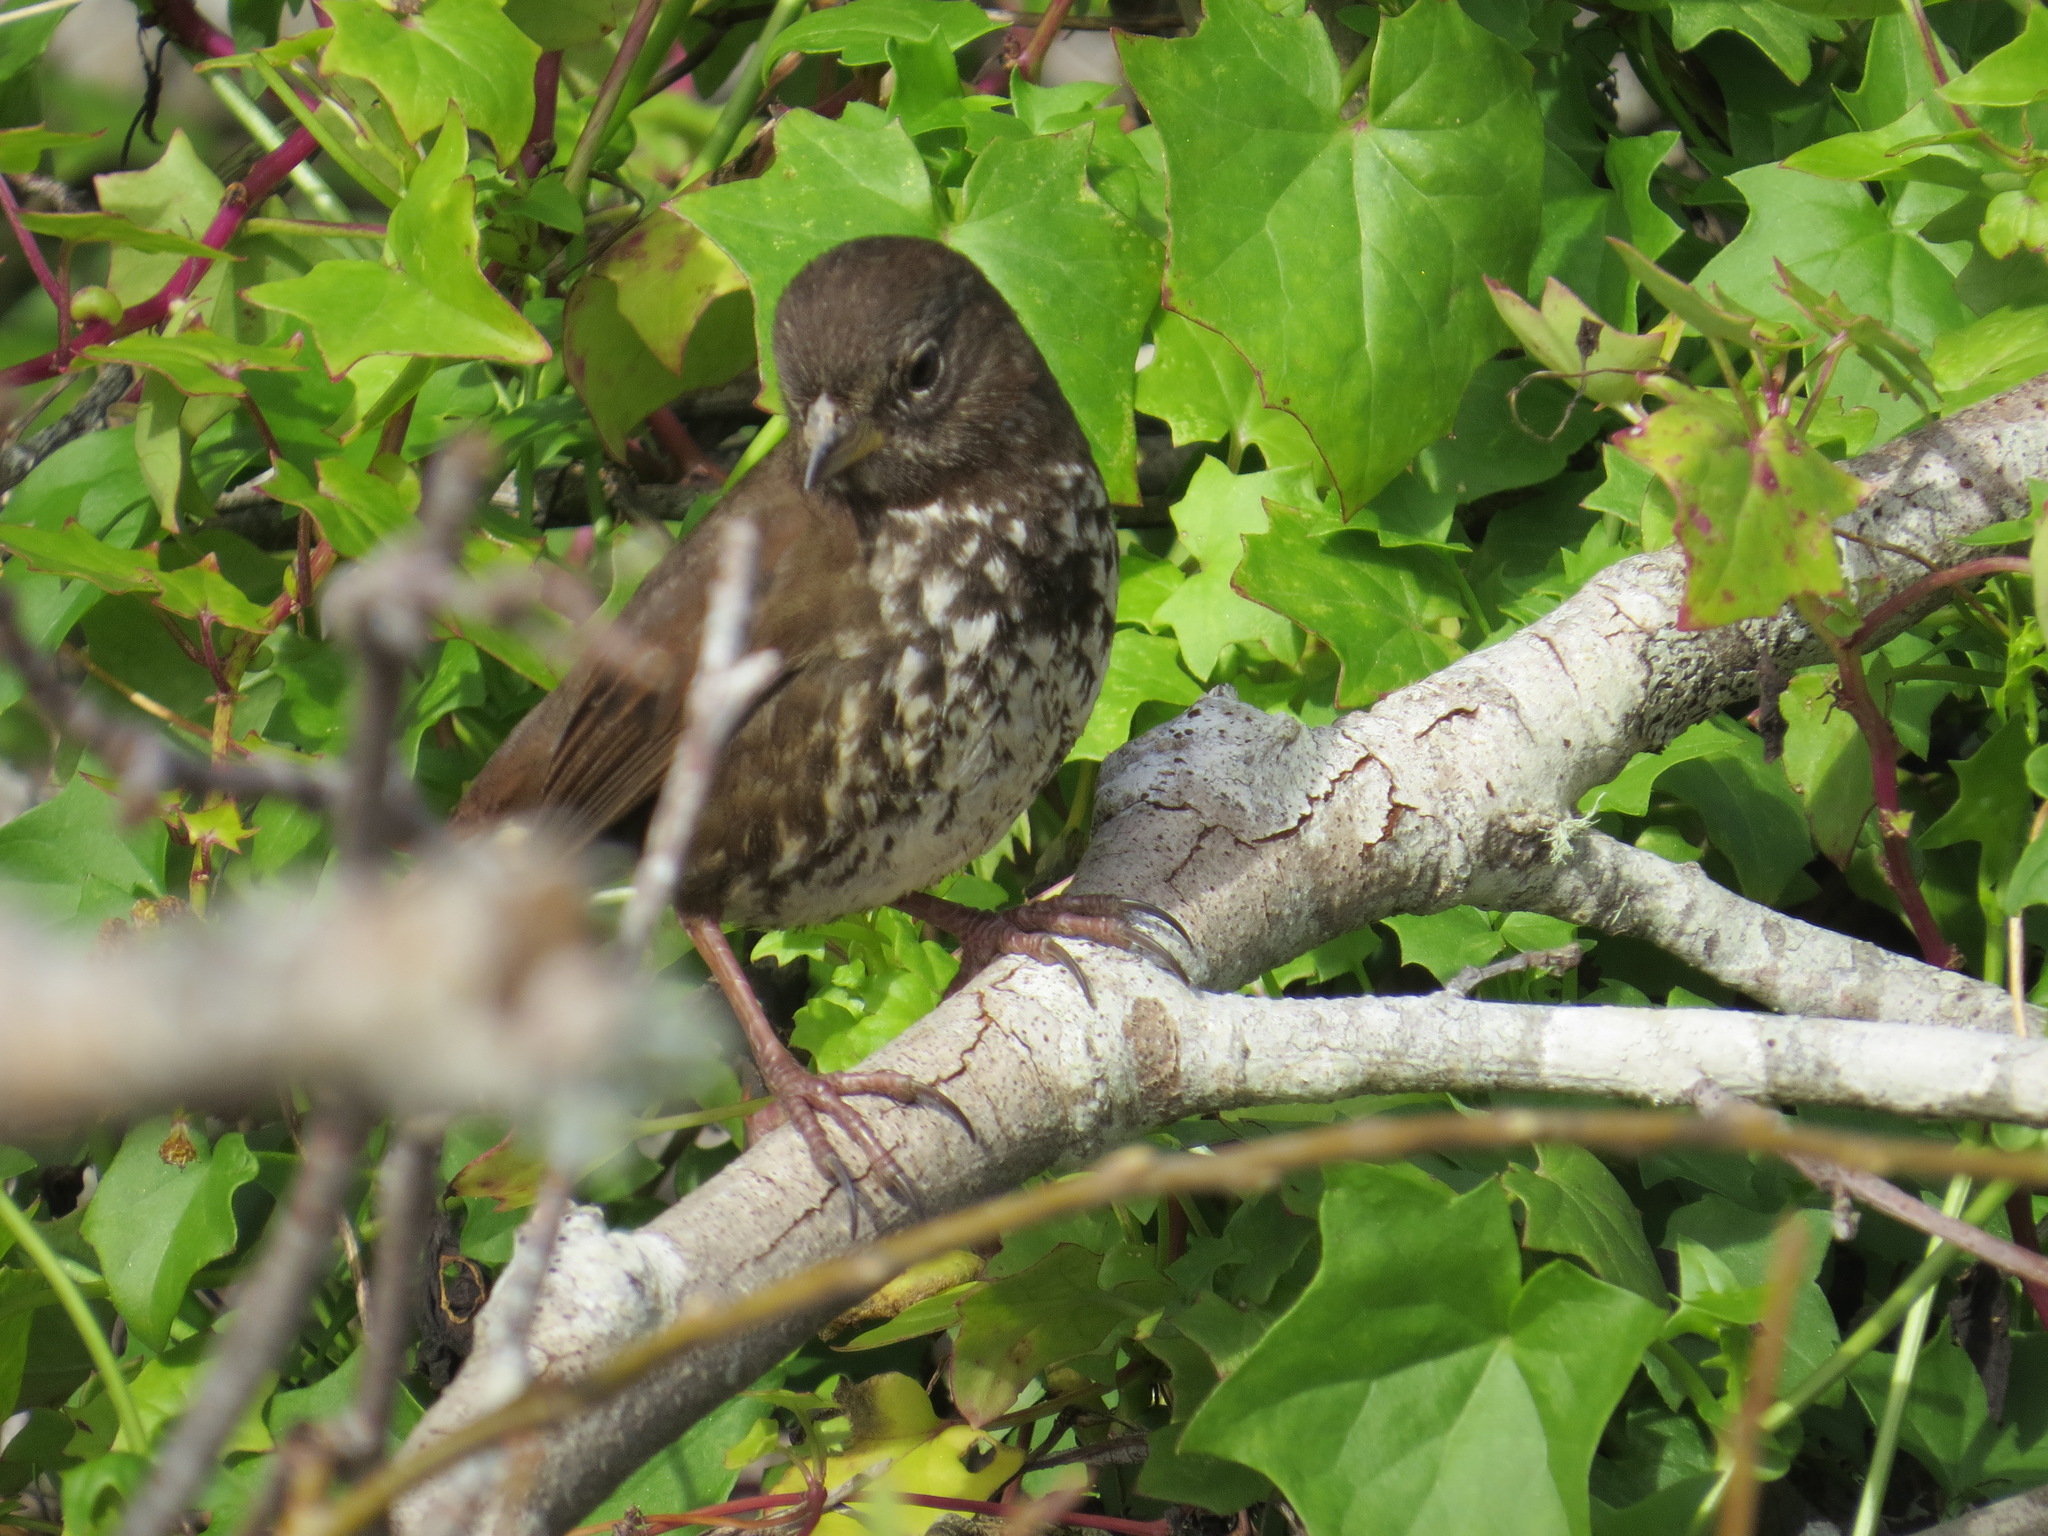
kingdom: Animalia
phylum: Chordata
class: Aves
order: Passeriformes
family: Passerellidae
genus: Passerella
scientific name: Passerella iliaca
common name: Fox sparrow
